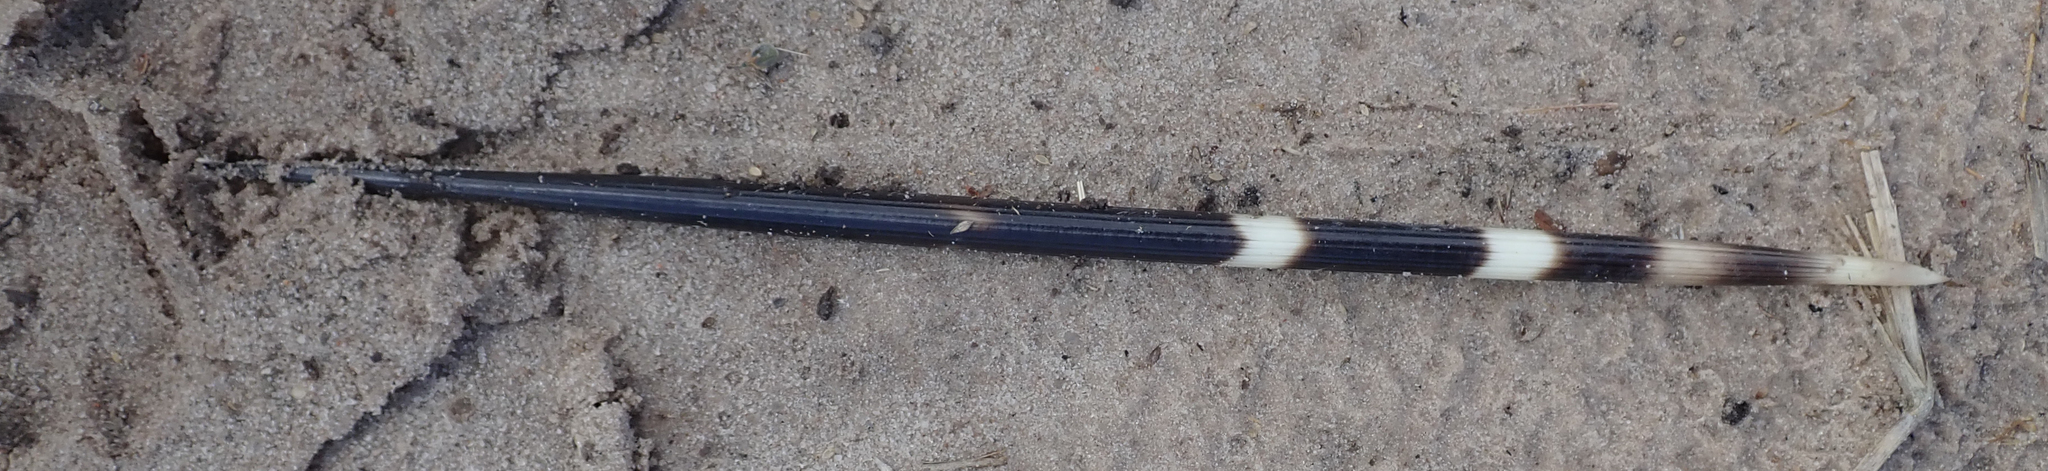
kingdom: Animalia
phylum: Chordata
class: Mammalia
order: Rodentia
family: Hystricidae
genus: Hystrix
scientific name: Hystrix africaeaustralis
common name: Cape porcupine
